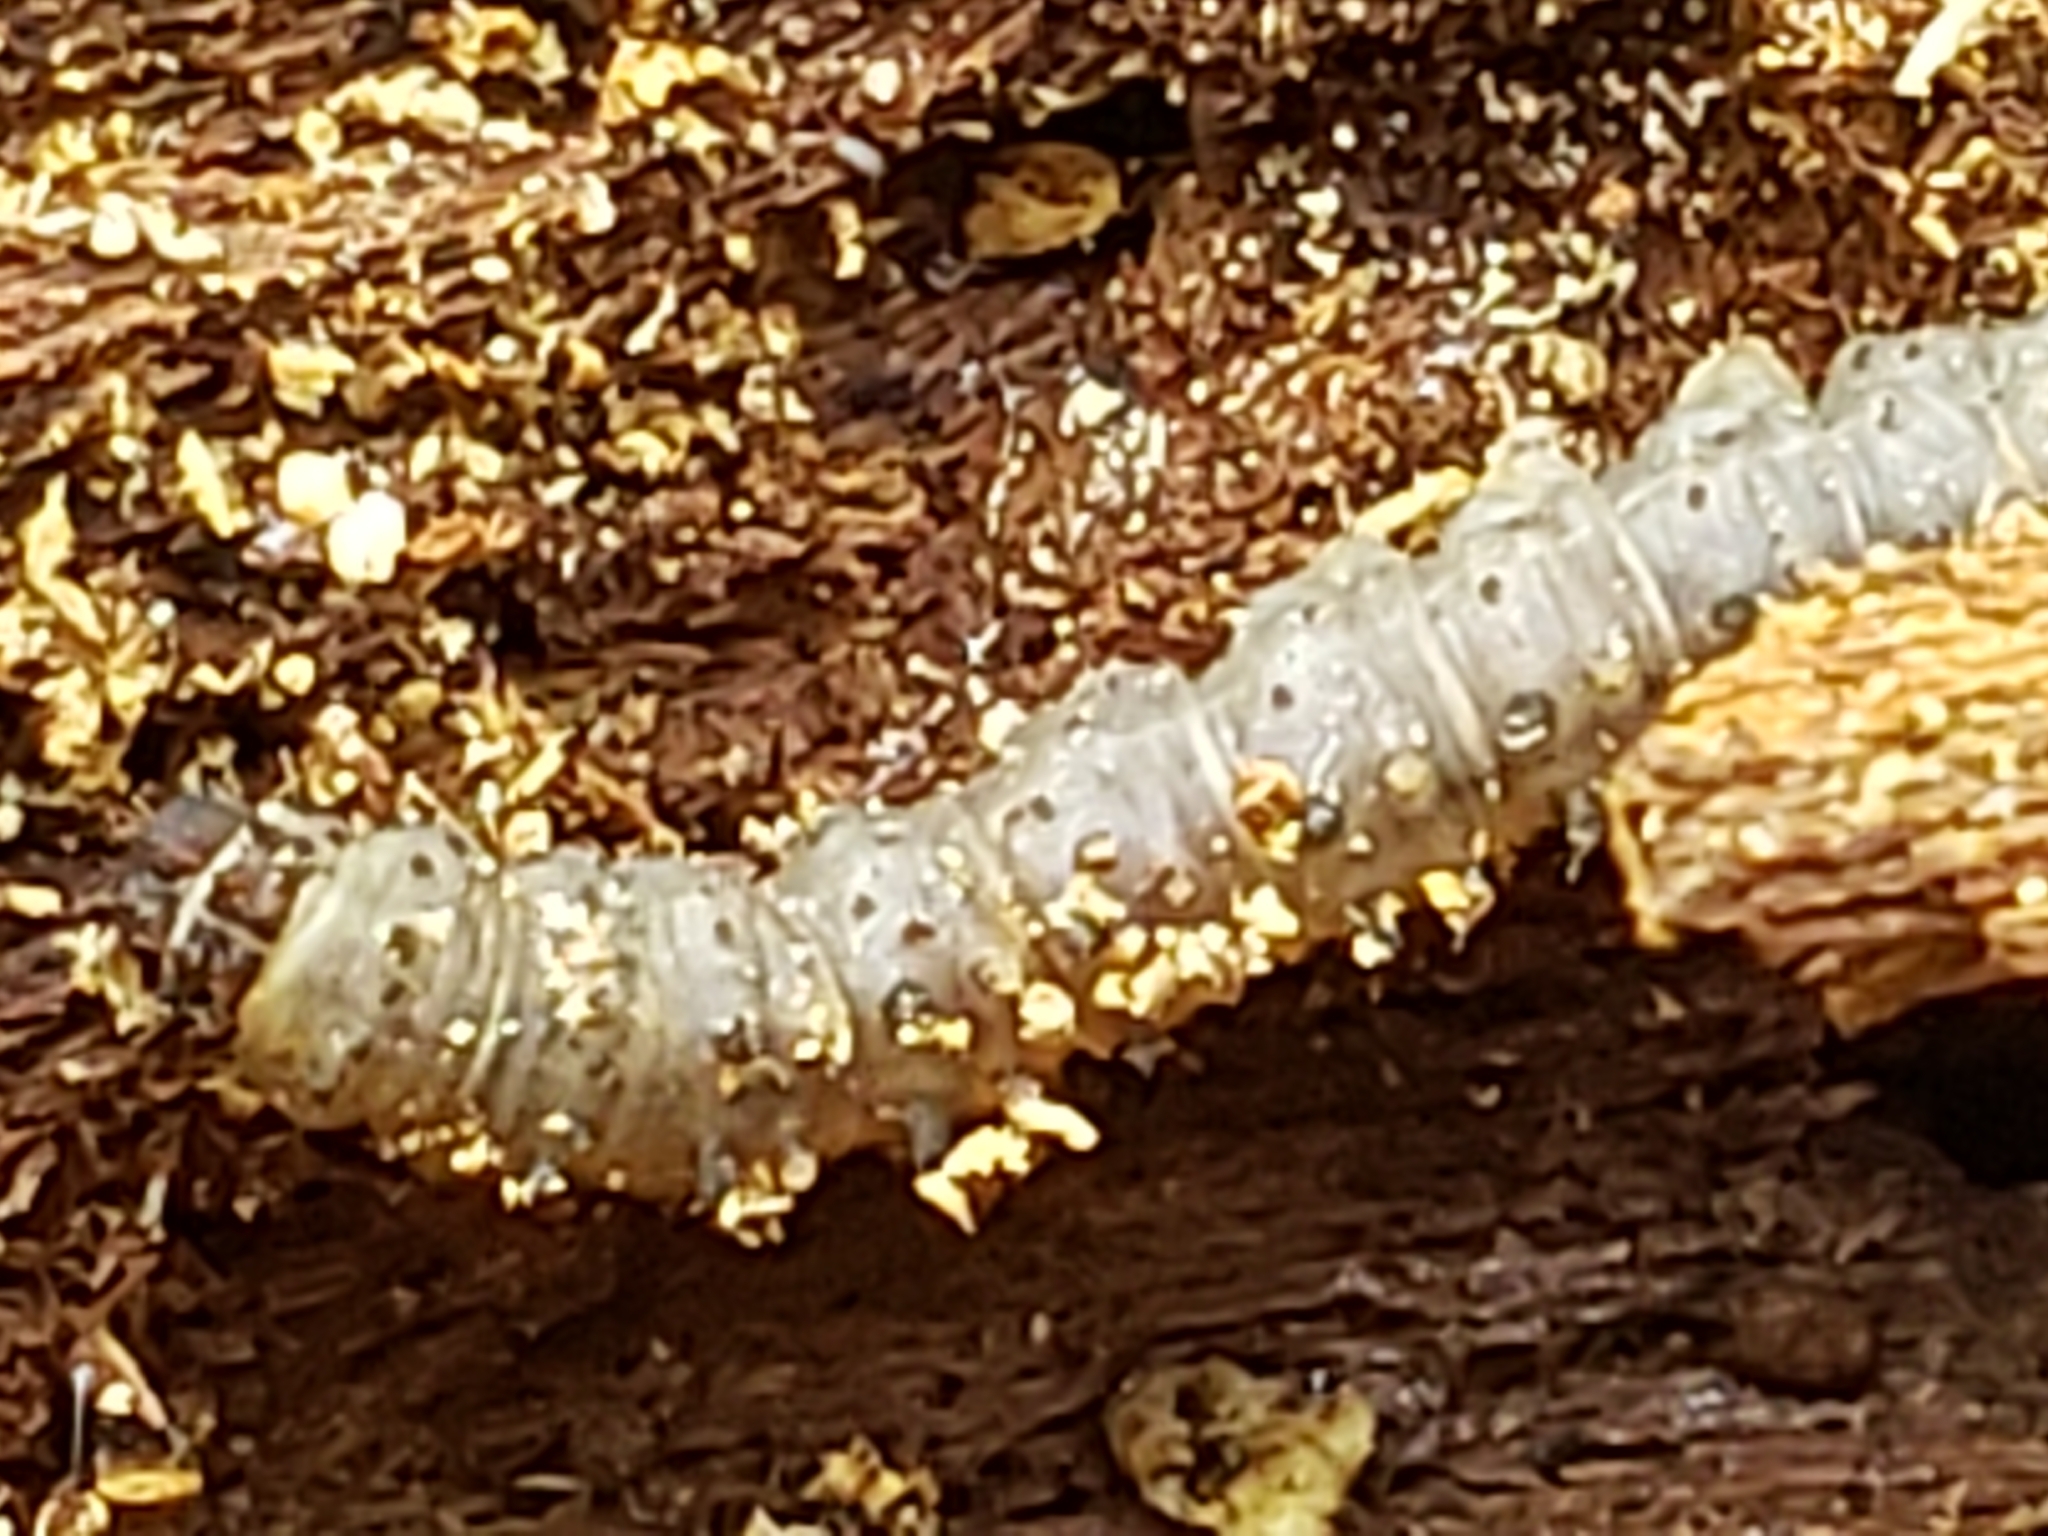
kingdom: Animalia
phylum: Arthropoda
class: Insecta
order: Lepidoptera
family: Erebidae
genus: Scolecocampa
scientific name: Scolecocampa liburna
